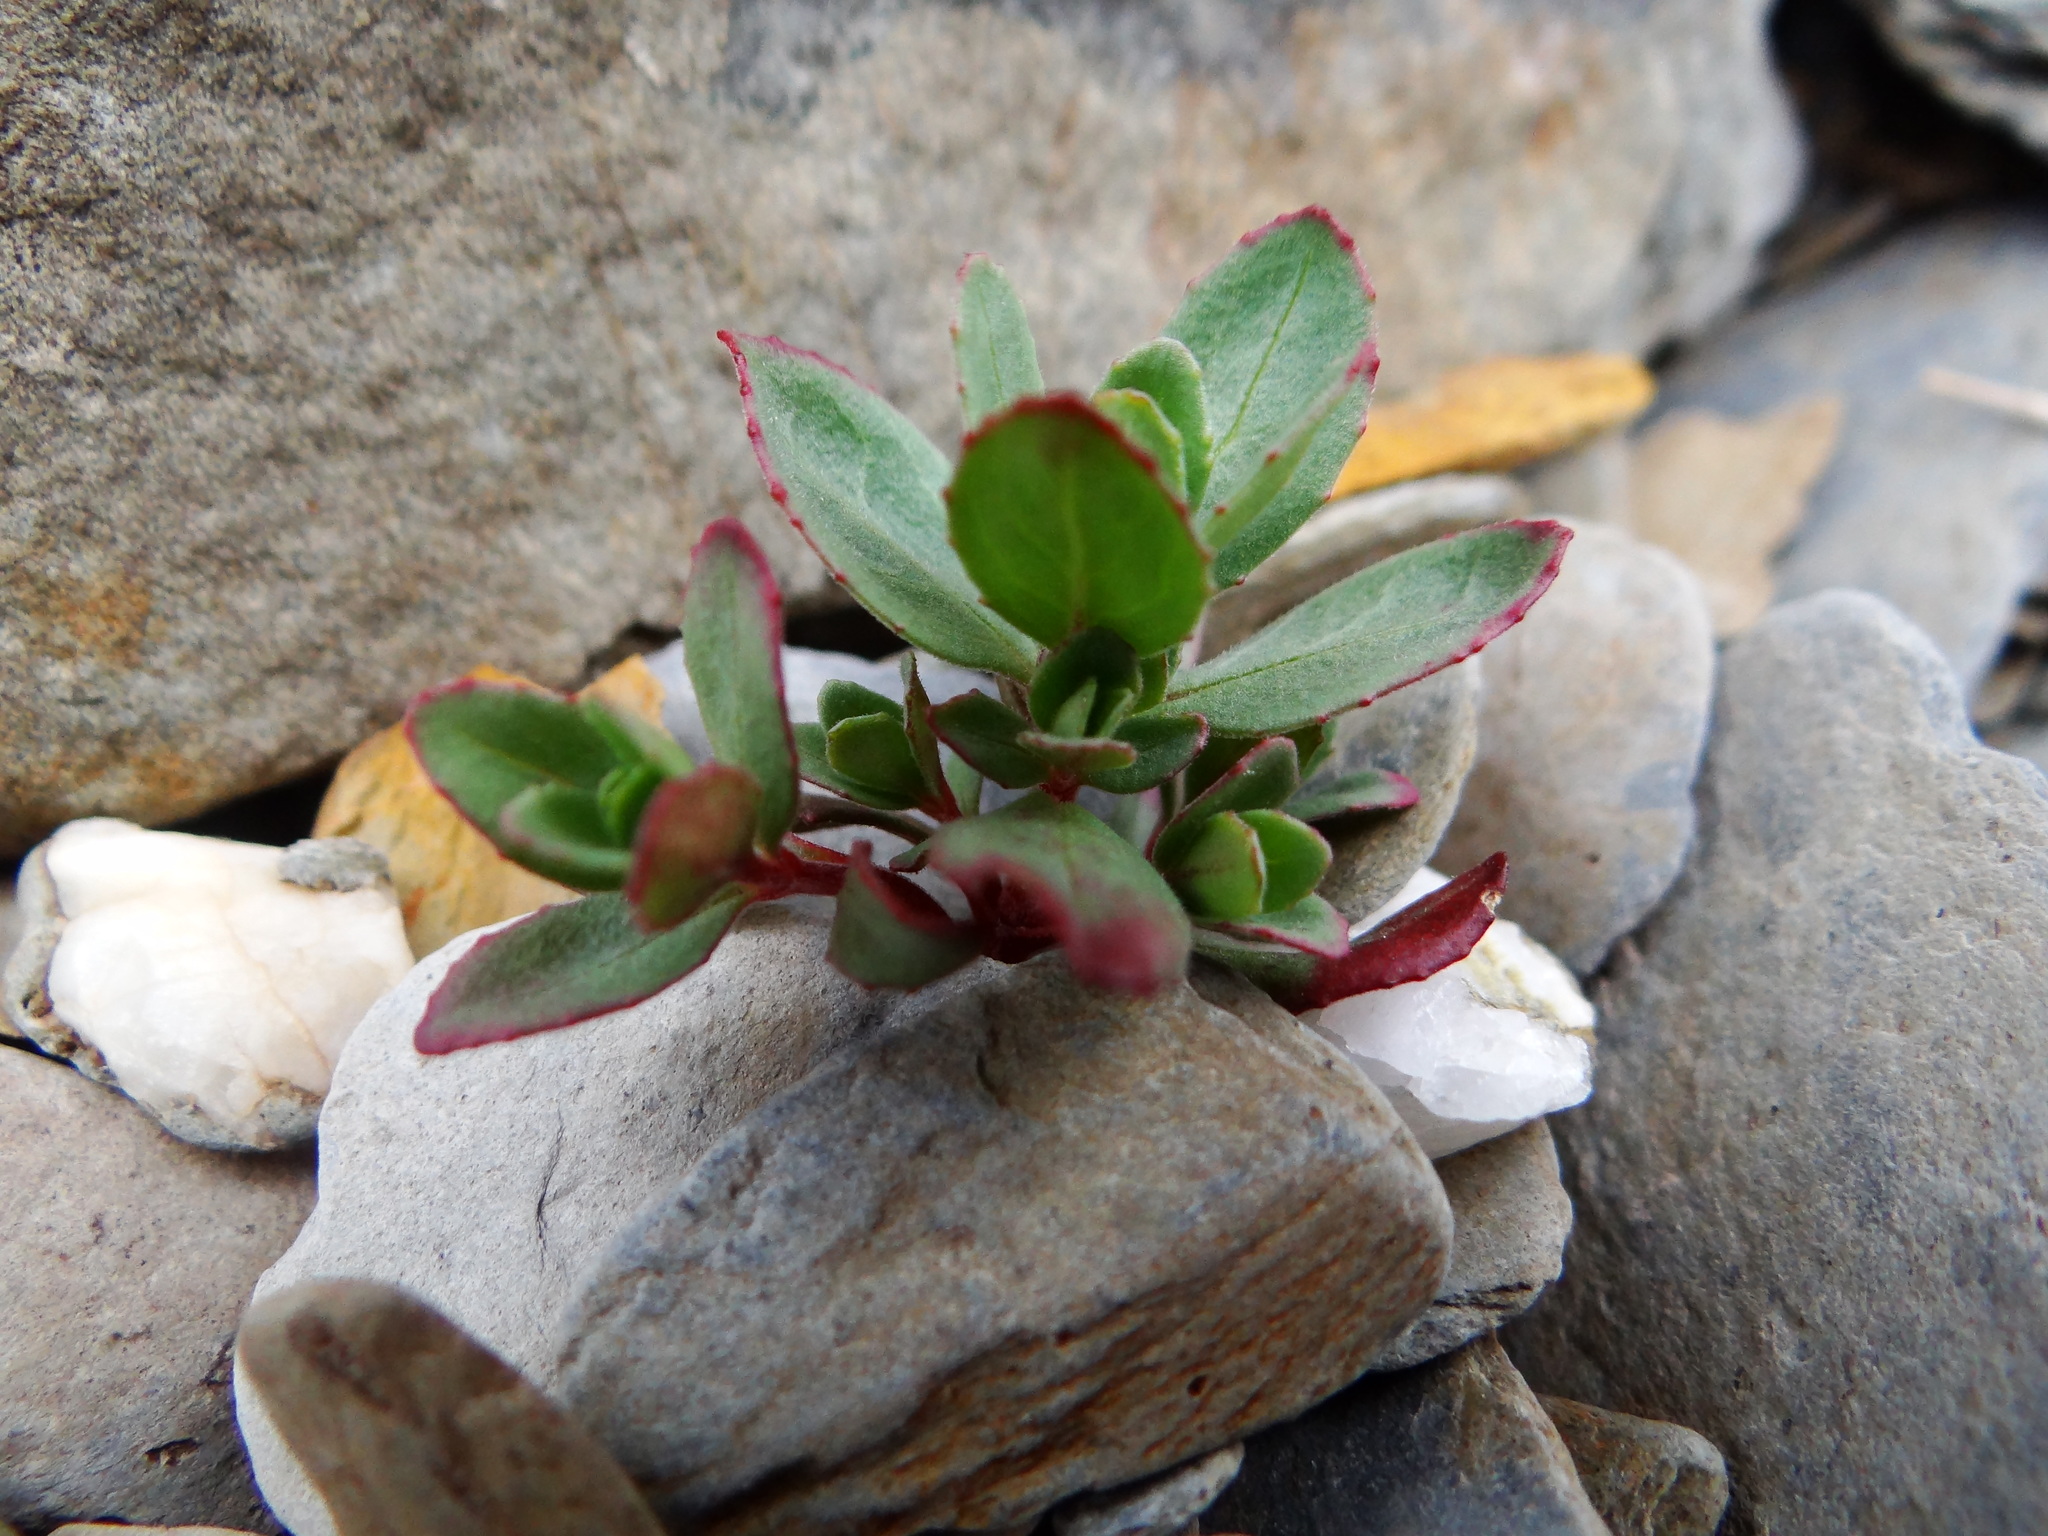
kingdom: Plantae
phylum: Tracheophyta
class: Magnoliopsida
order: Myrtales
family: Onagraceae
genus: Epilobium
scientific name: Epilobium nankotaizanense
